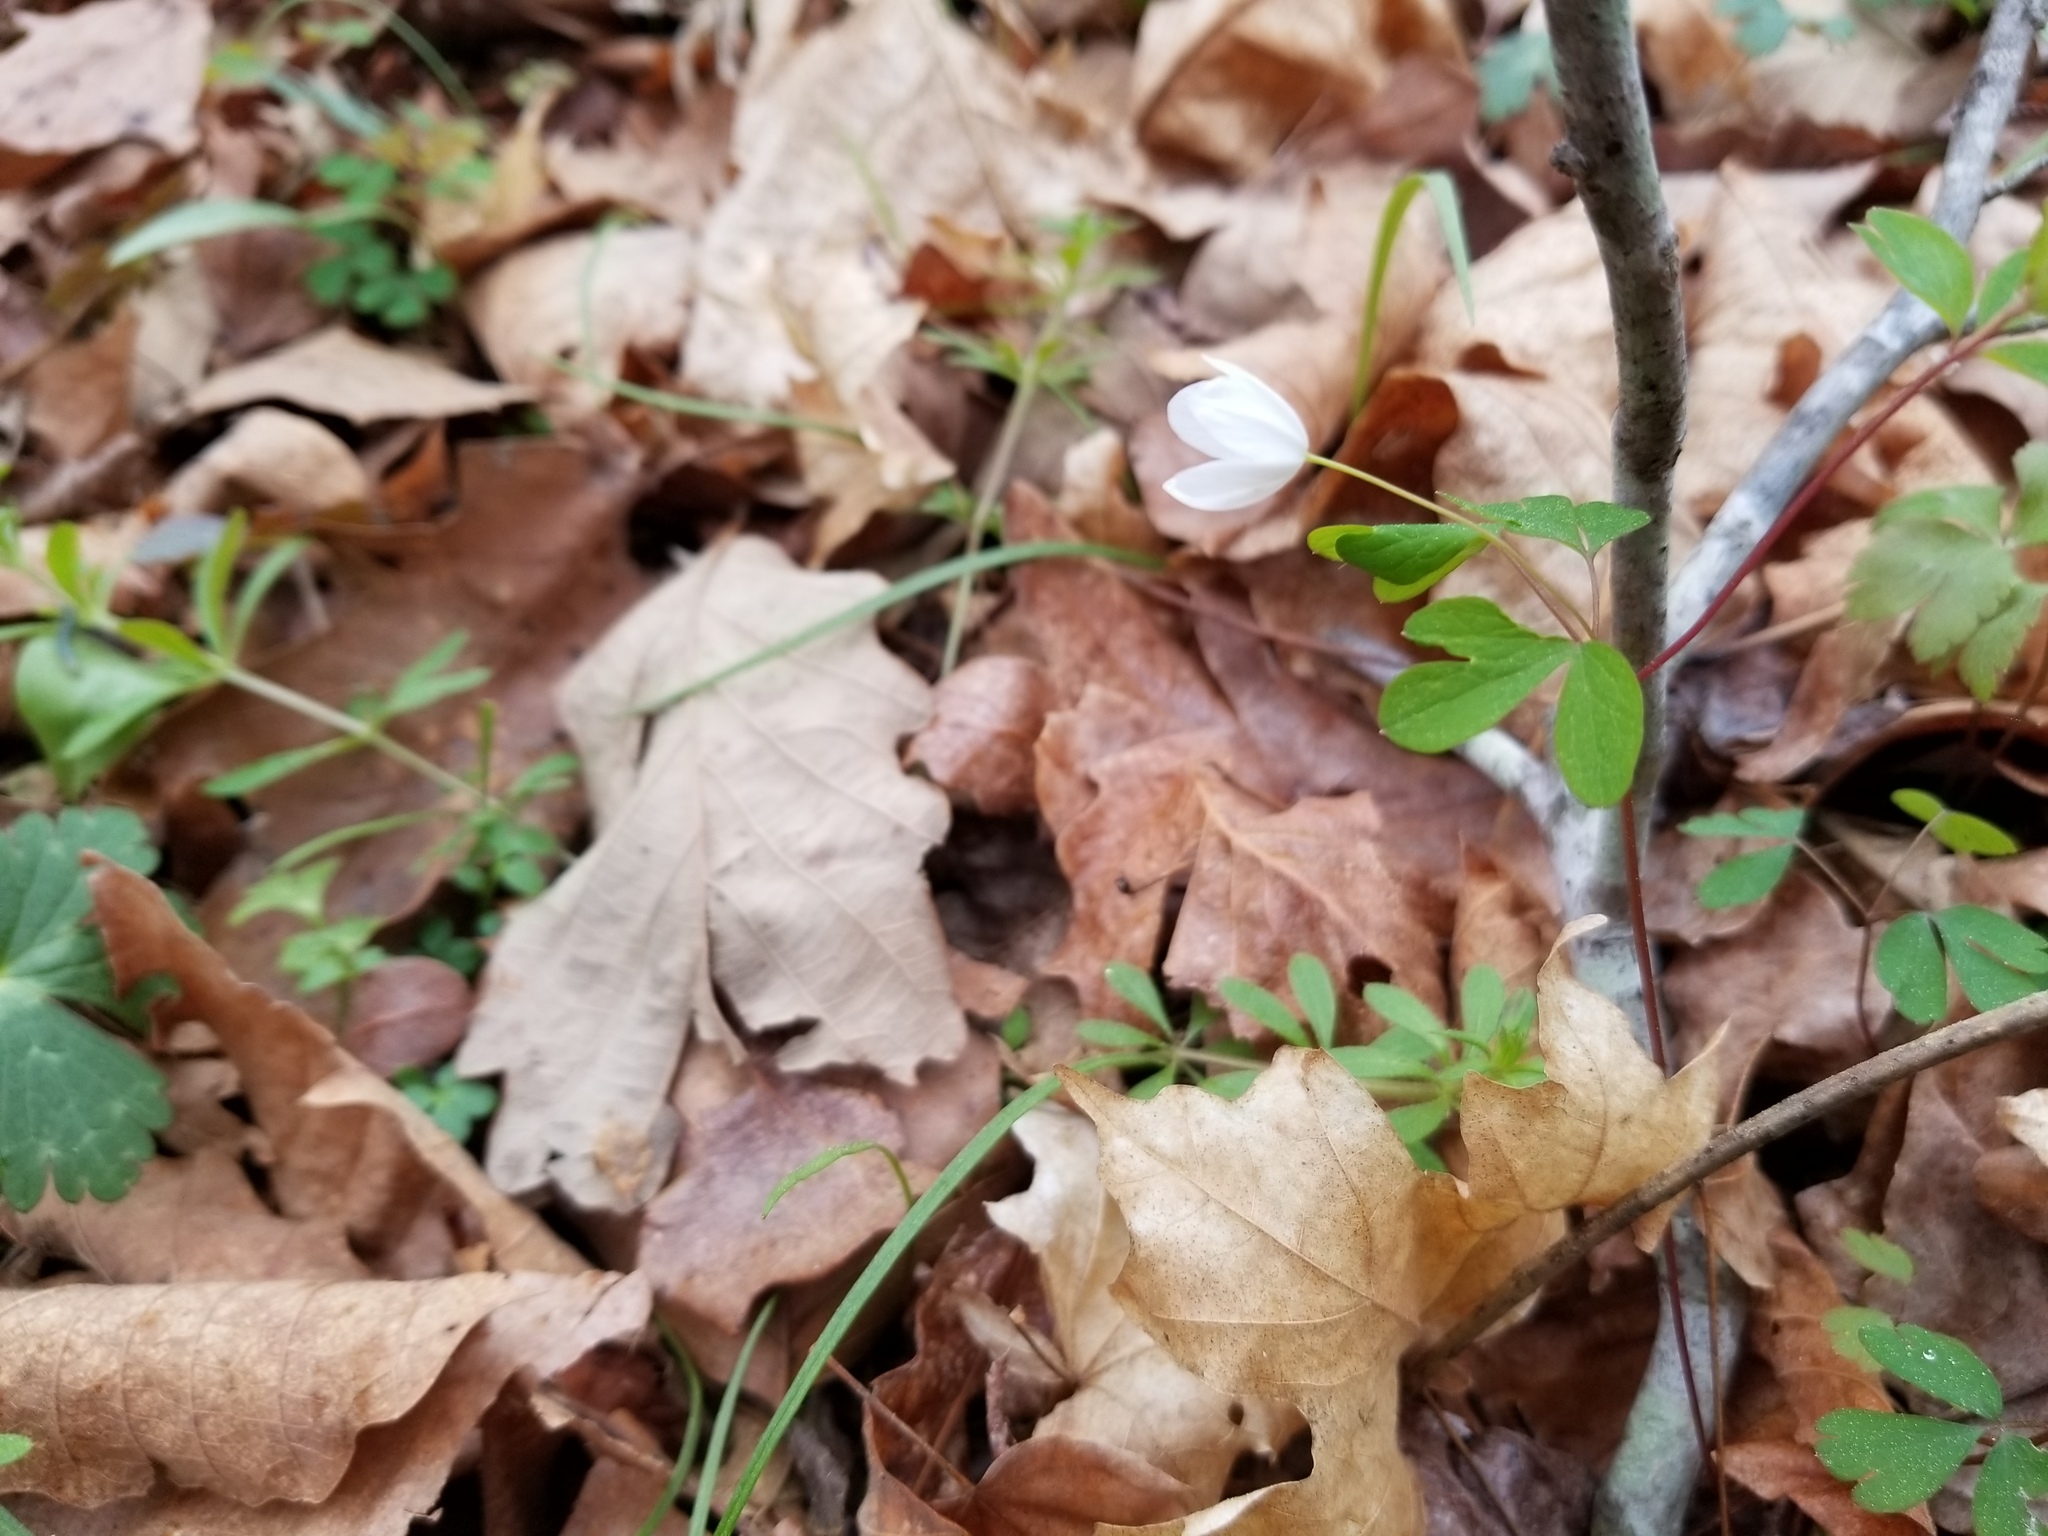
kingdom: Plantae
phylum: Tracheophyta
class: Magnoliopsida
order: Ranunculales
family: Ranunculaceae
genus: Enemion
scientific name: Enemion biternatum
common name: Eastern false rue-anemone
